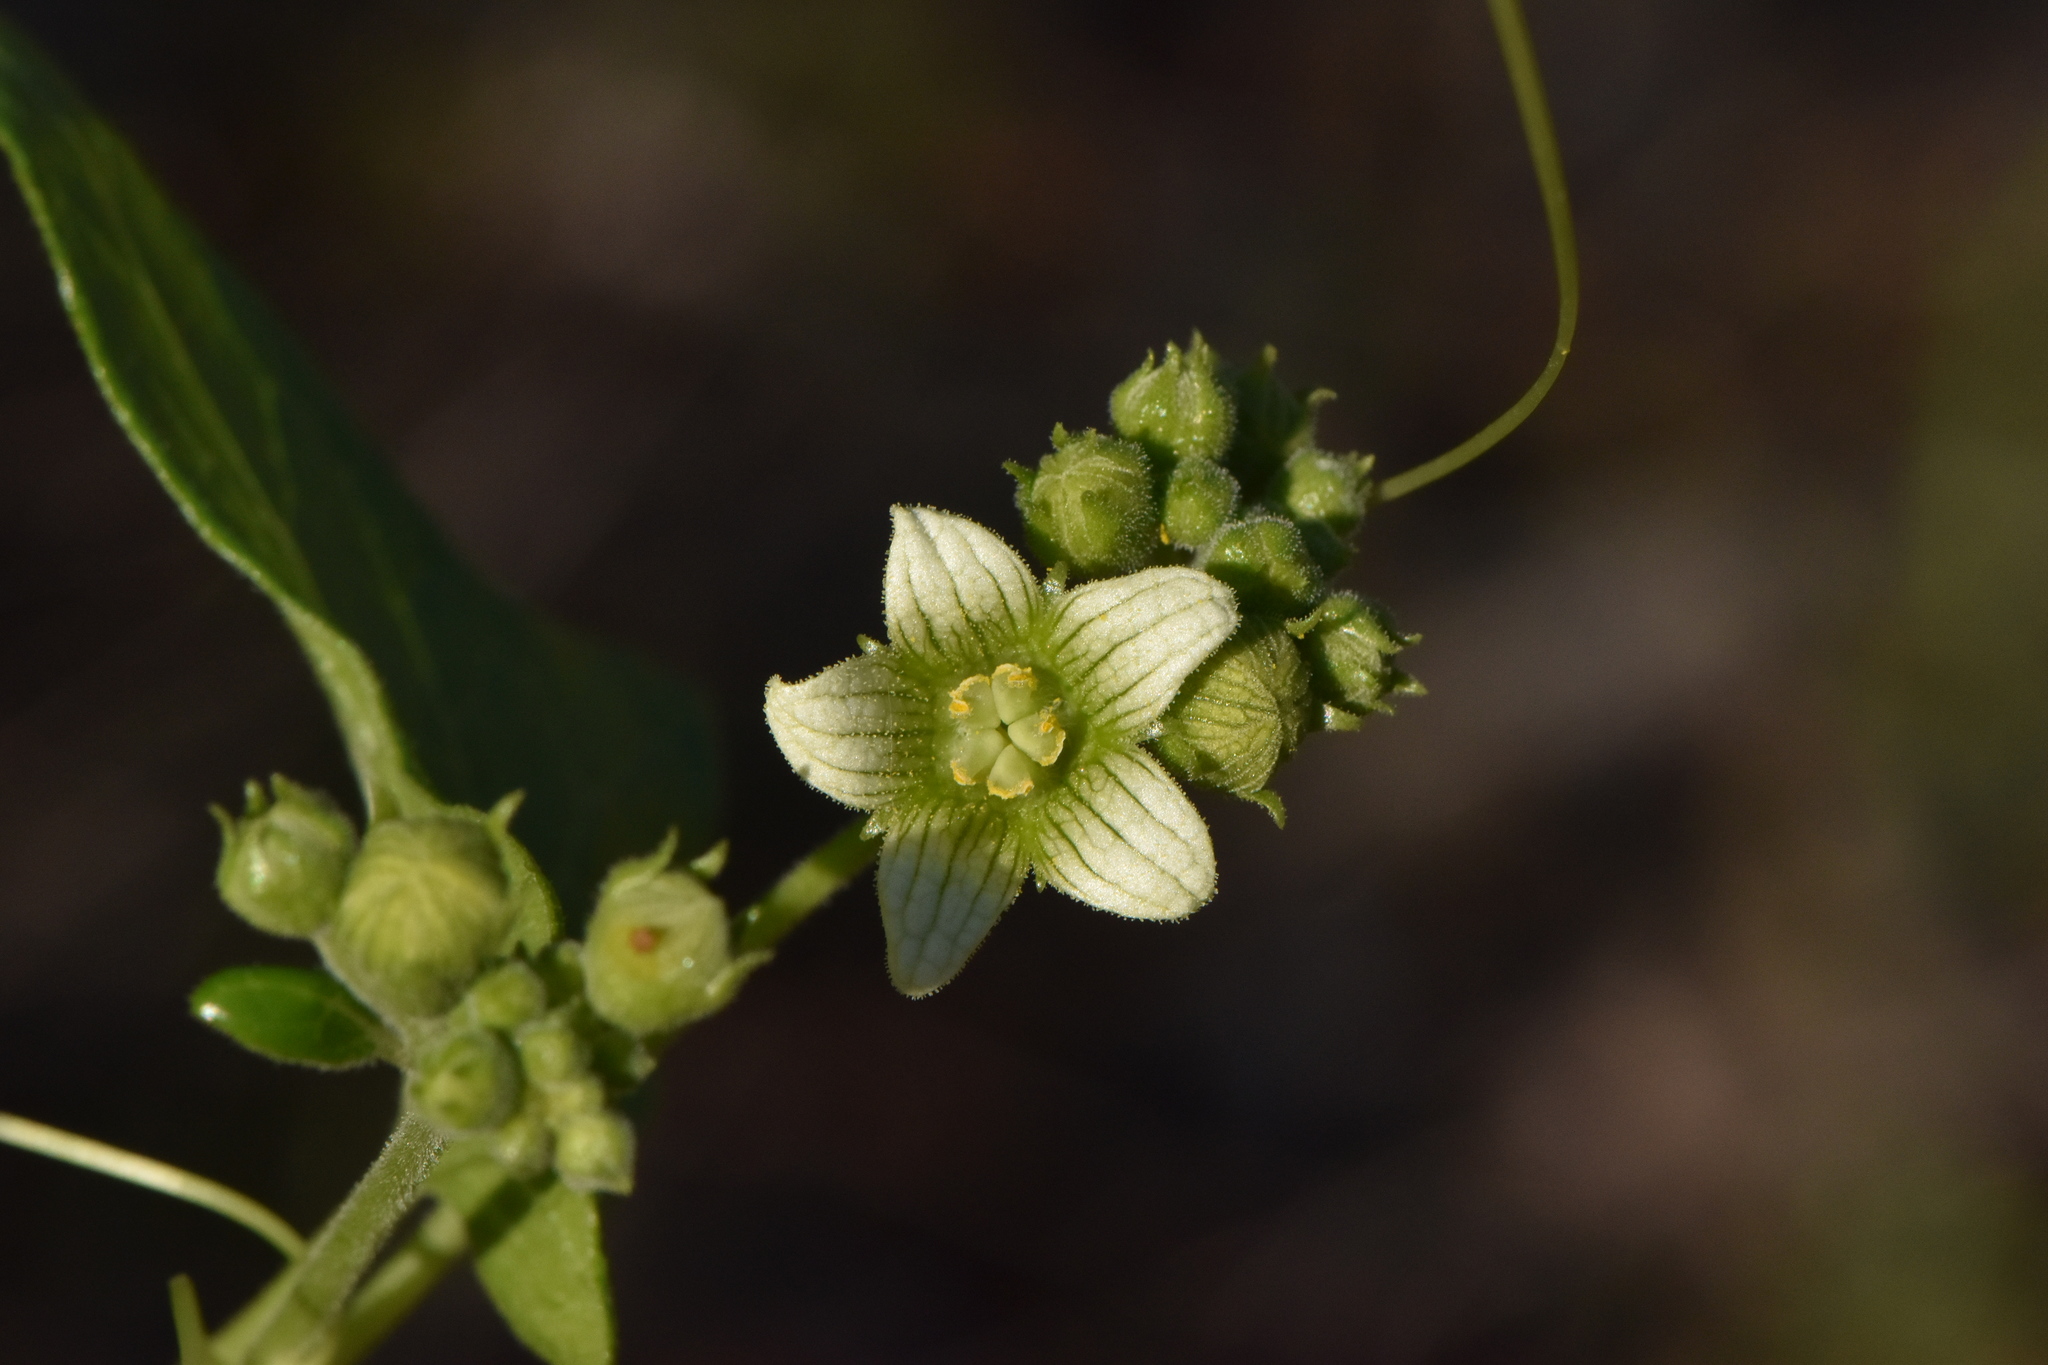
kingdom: Plantae
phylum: Tracheophyta
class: Magnoliopsida
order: Cucurbitales
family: Cucurbitaceae
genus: Bryonia
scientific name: Bryonia dioica
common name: White bryony
